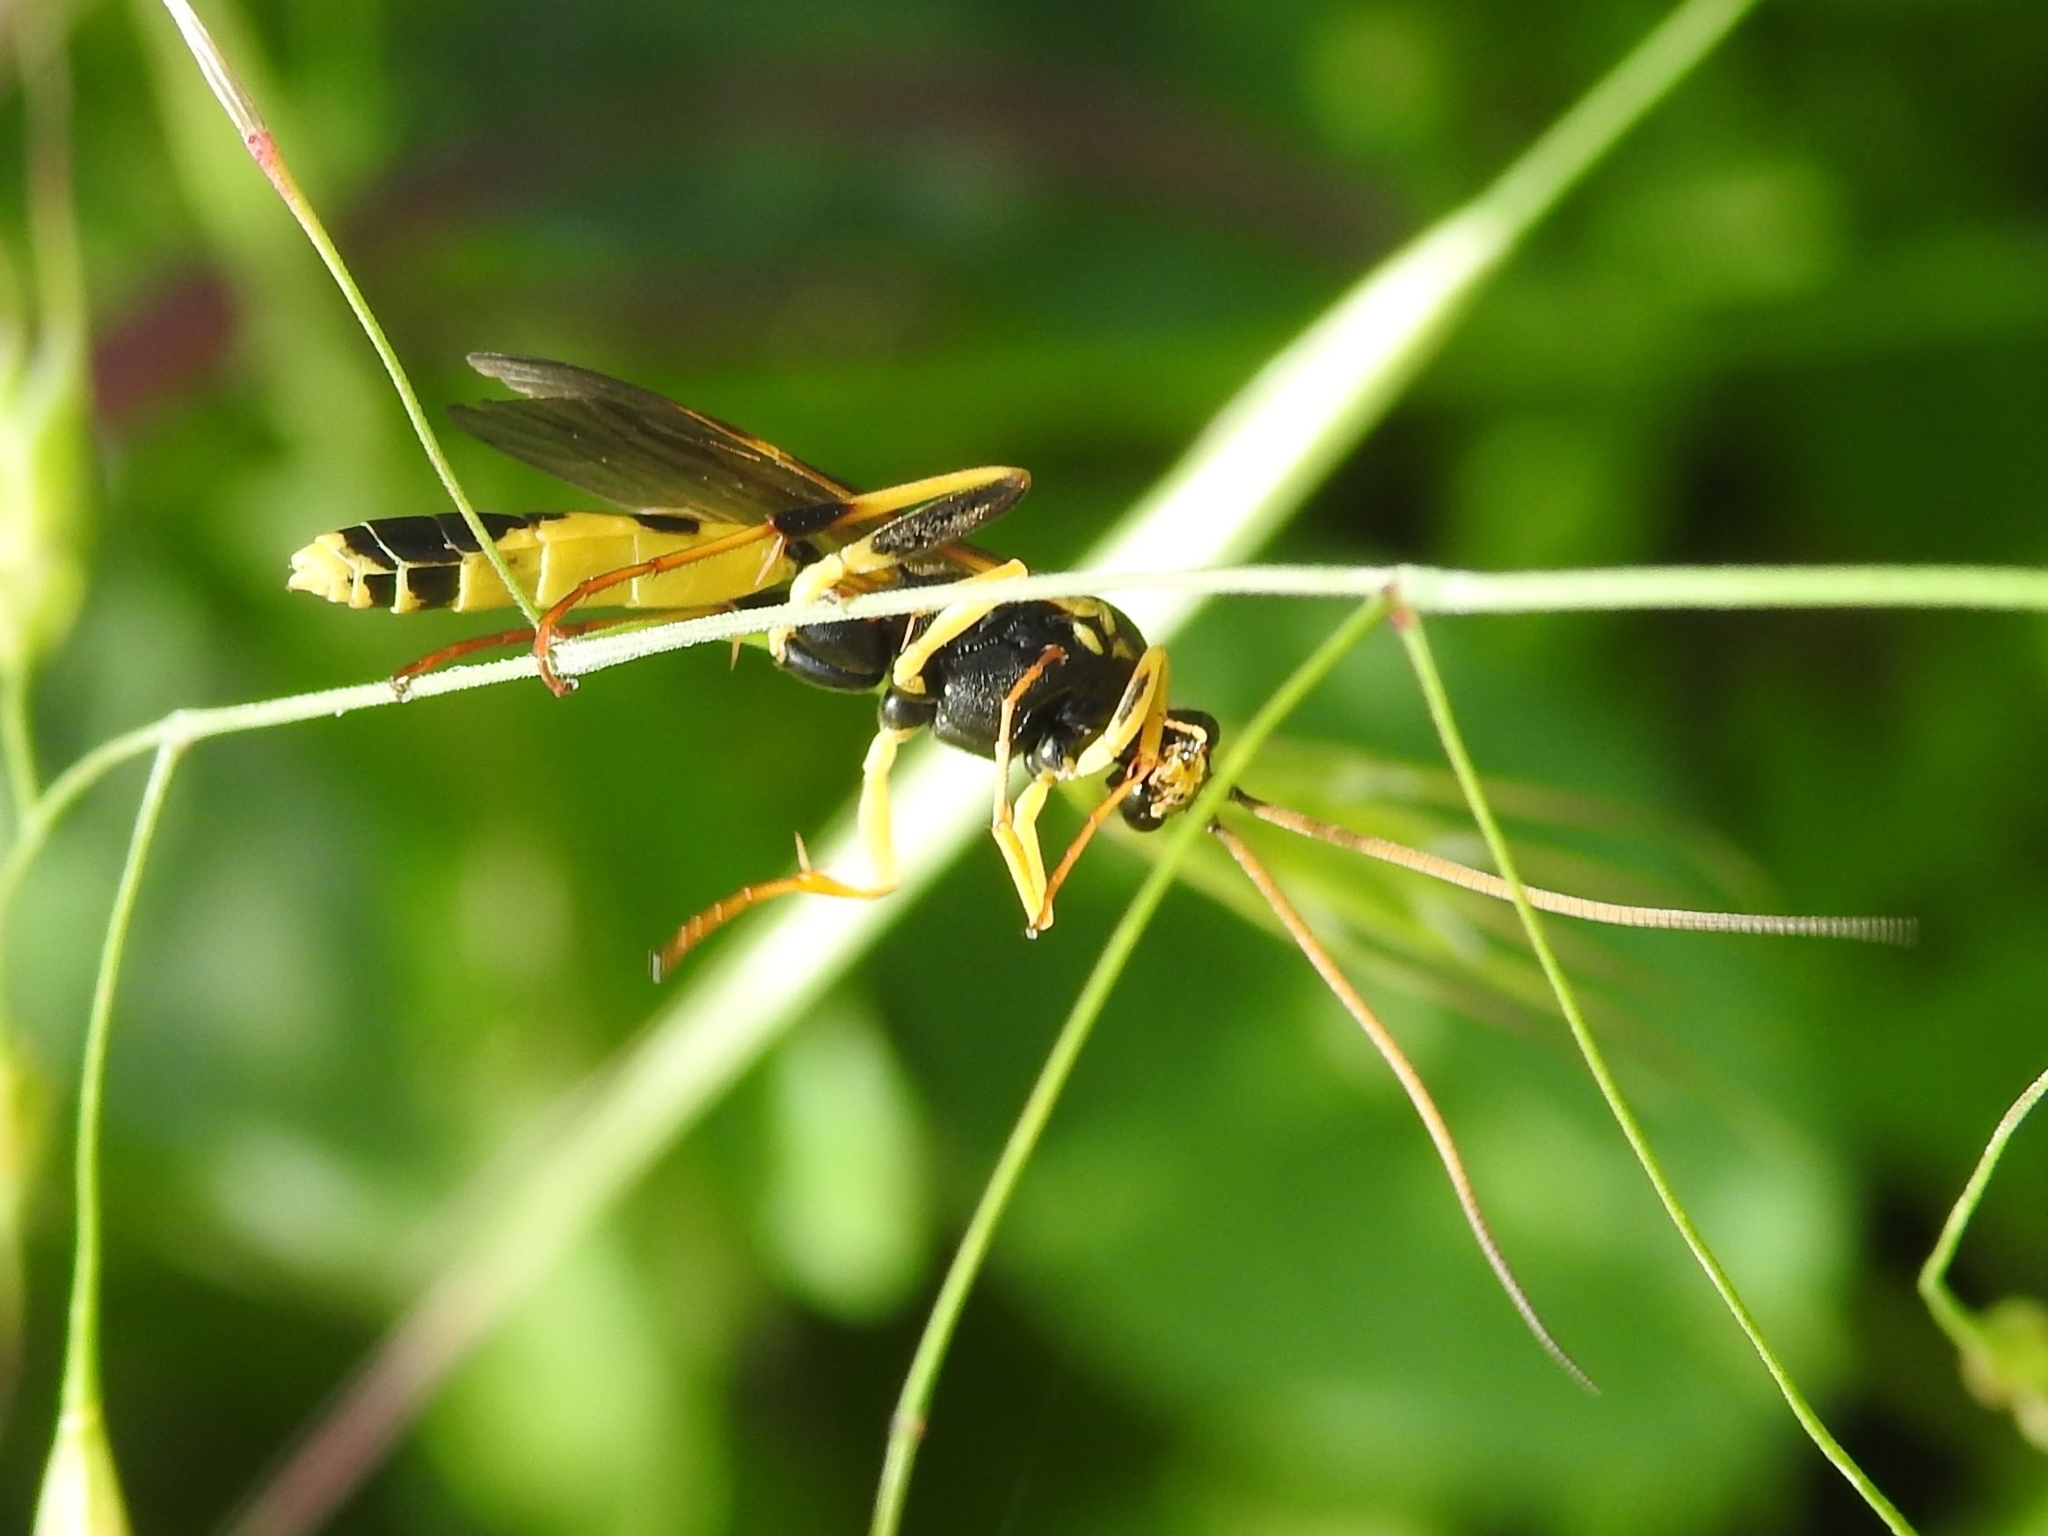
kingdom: Animalia
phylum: Arthropoda
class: Insecta
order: Hymenoptera
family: Ichneumonidae
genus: Amblyteles
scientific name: Amblyteles armatorius
